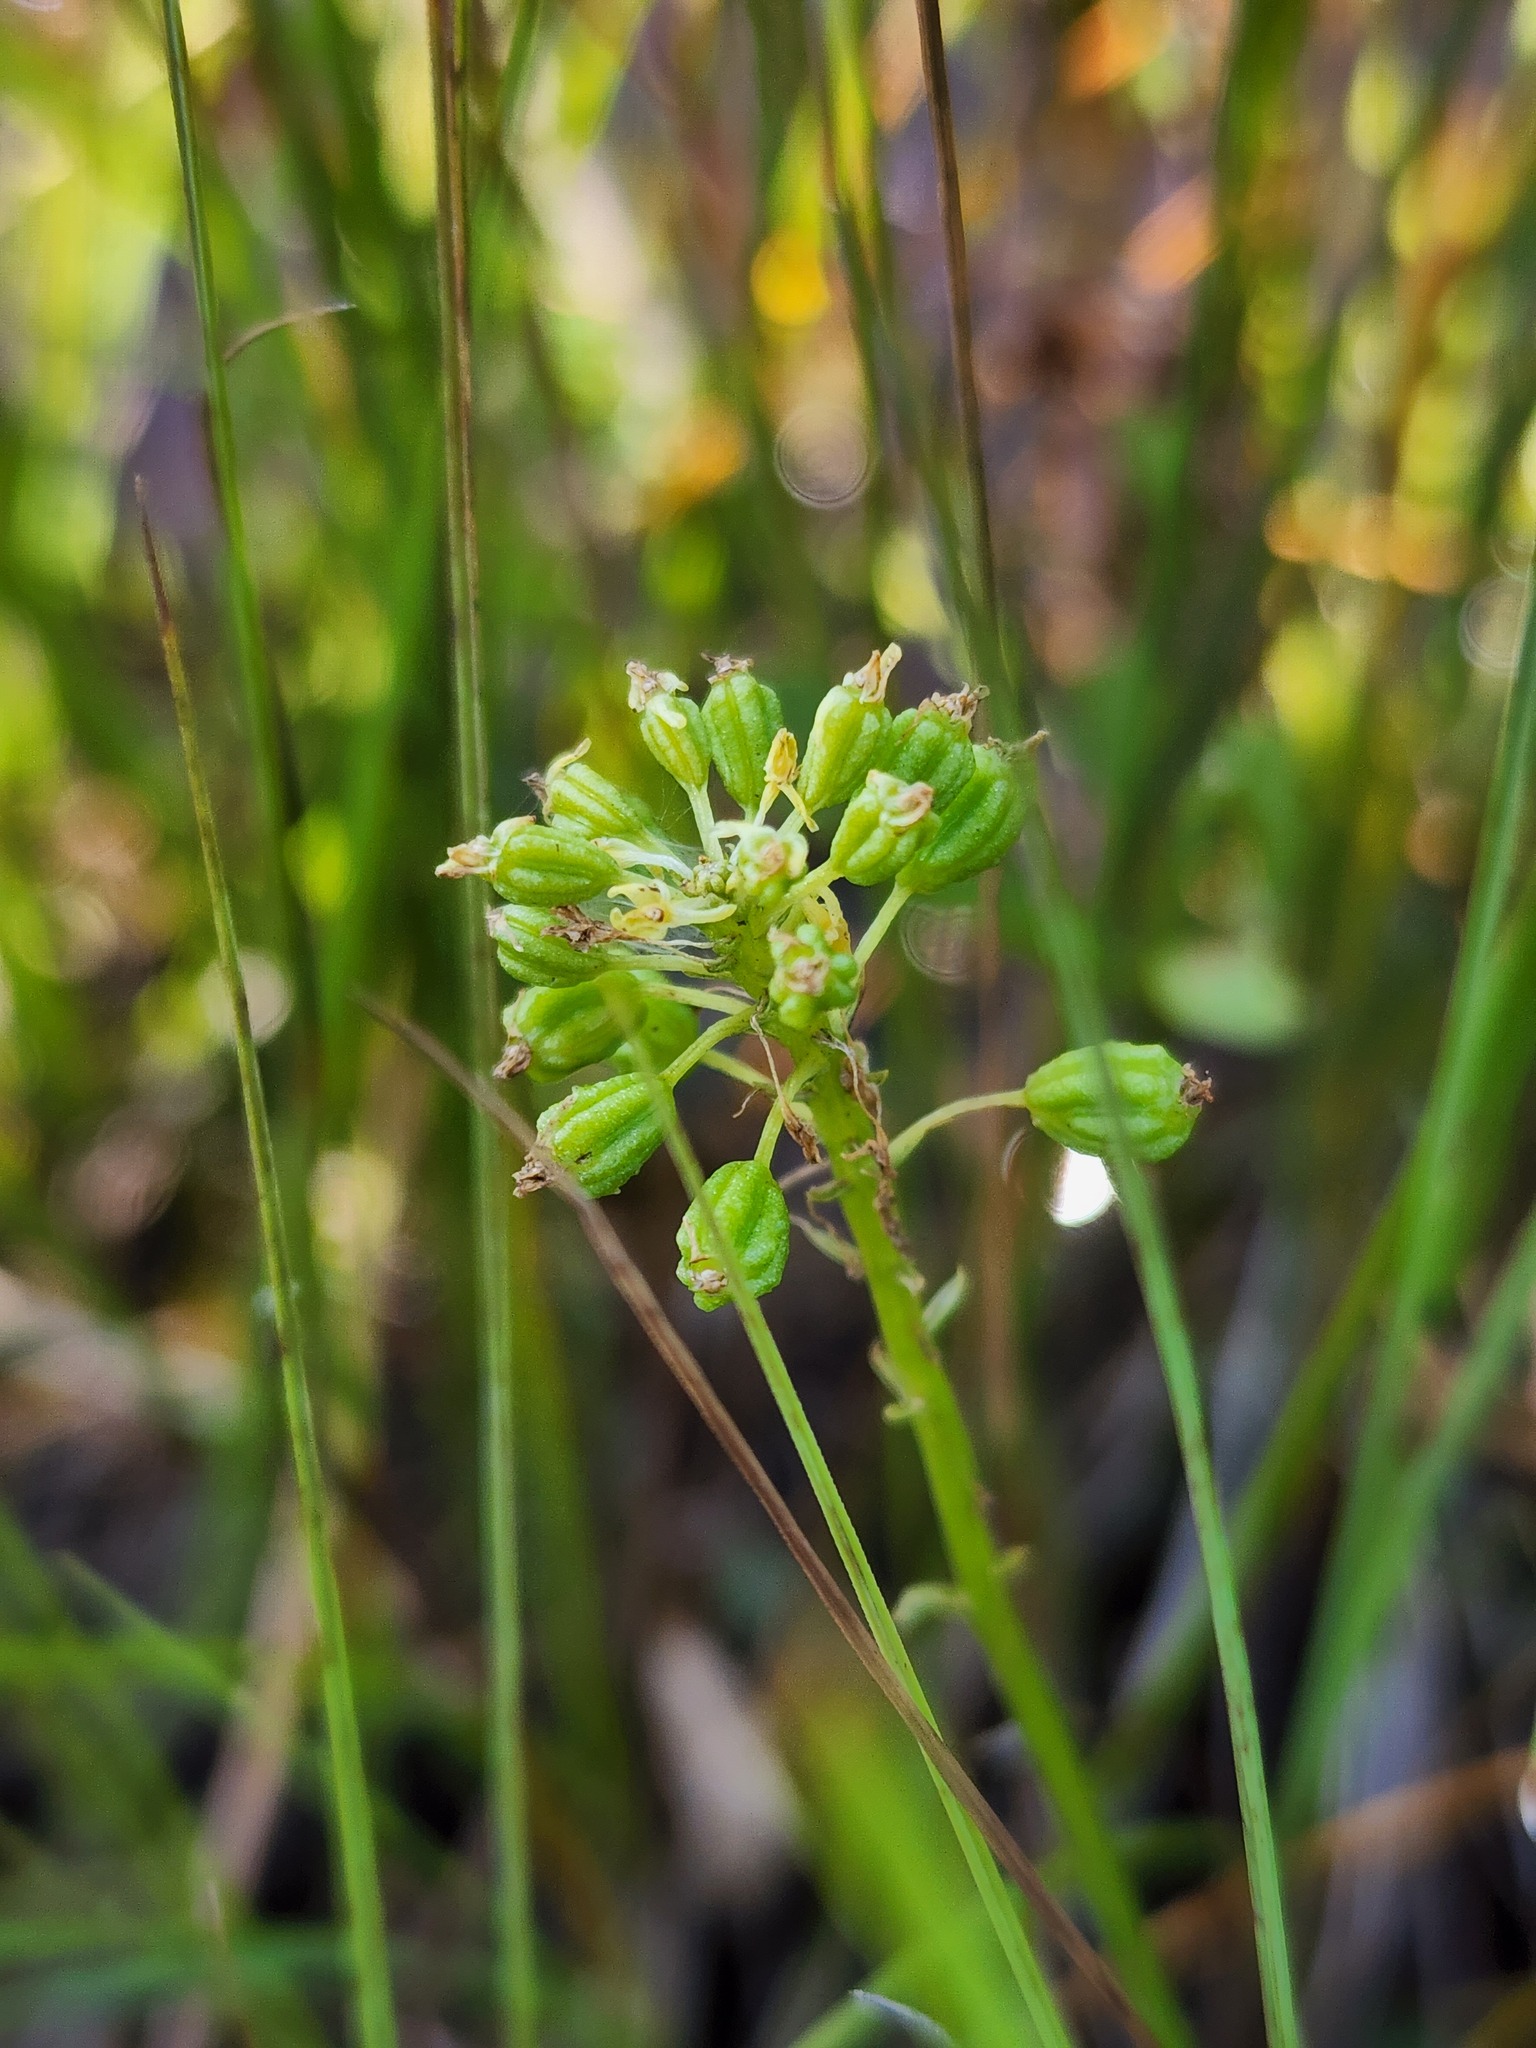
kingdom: Plantae
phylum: Tracheophyta
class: Liliopsida
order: Asparagales
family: Orchidaceae
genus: Malaxis
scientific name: Malaxis unifolia
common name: Green adder's-mouth
